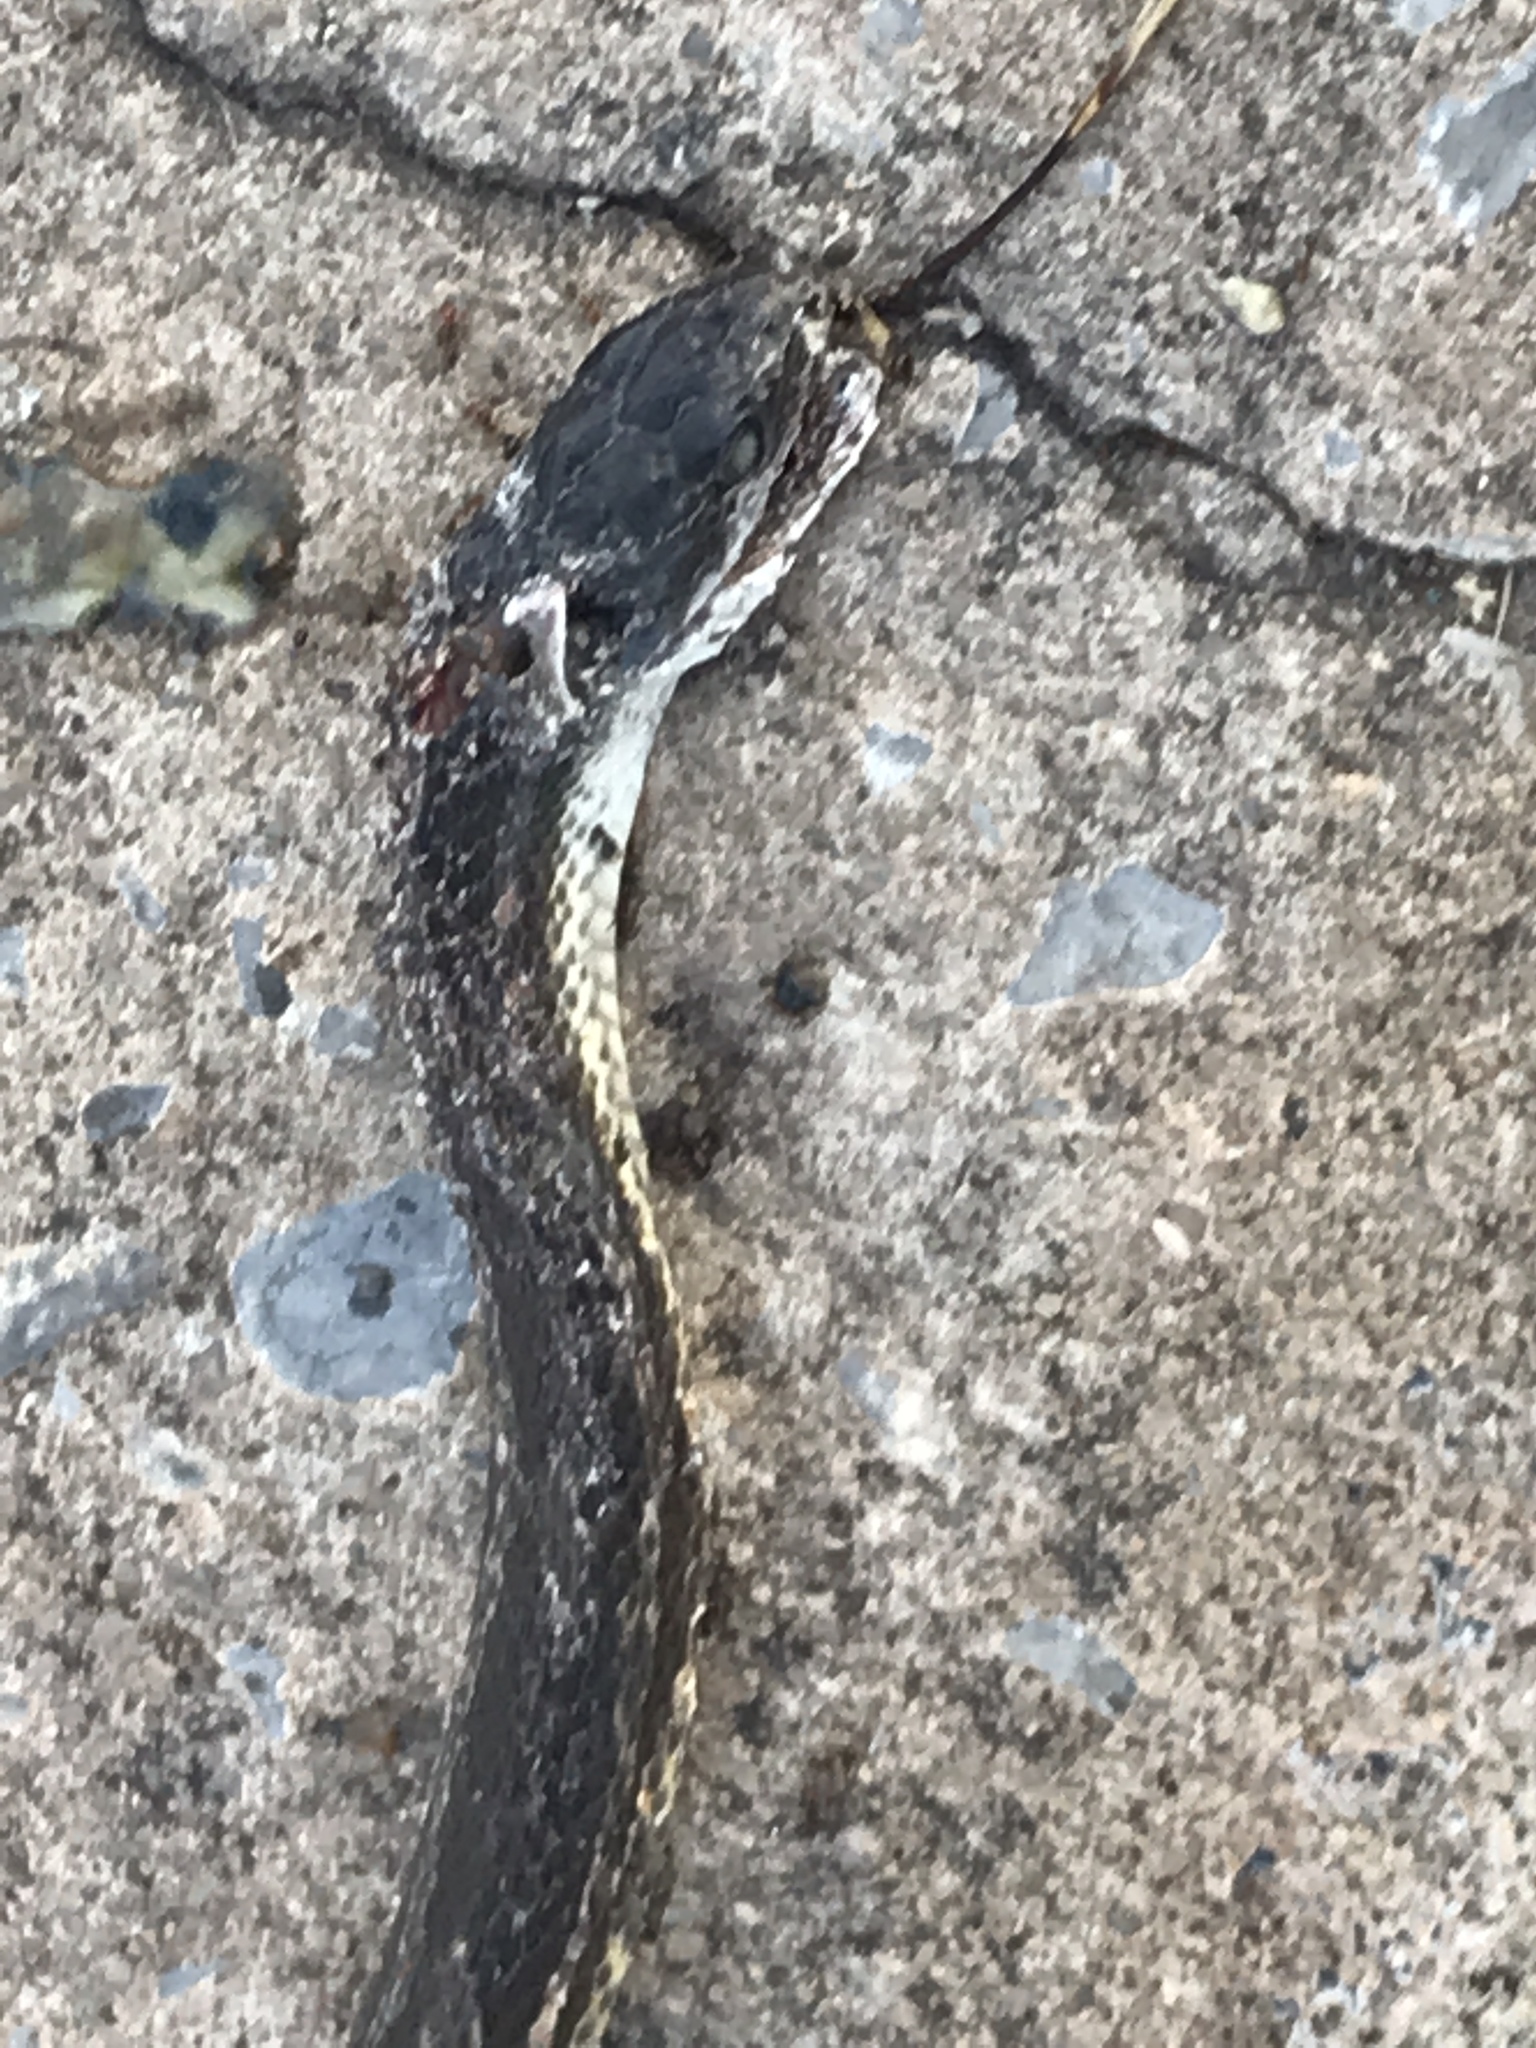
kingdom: Animalia
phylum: Chordata
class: Squamata
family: Colubridae
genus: Pantherophis
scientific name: Pantherophis obsoletus
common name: Black rat snake
